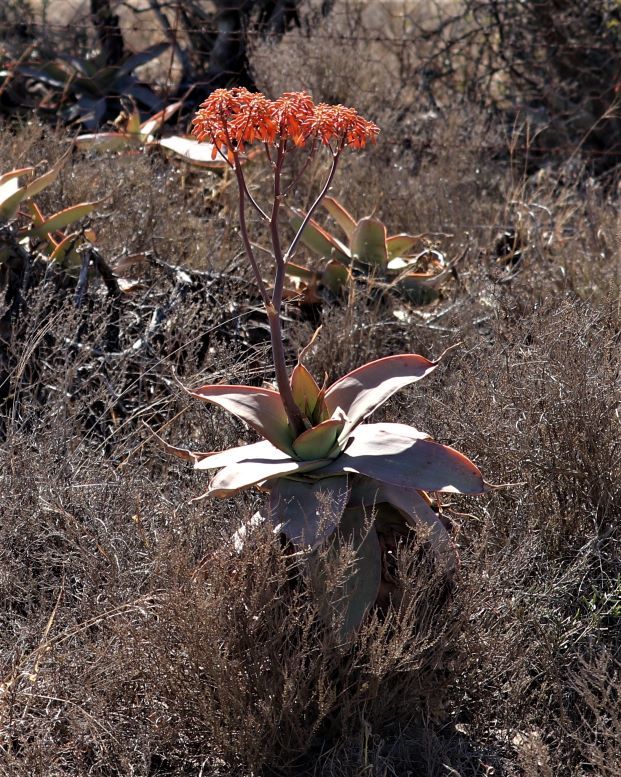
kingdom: Plantae
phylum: Tracheophyta
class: Liliopsida
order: Asparagales
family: Asphodelaceae
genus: Aloe
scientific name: Aloe striata
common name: Coral aloe
